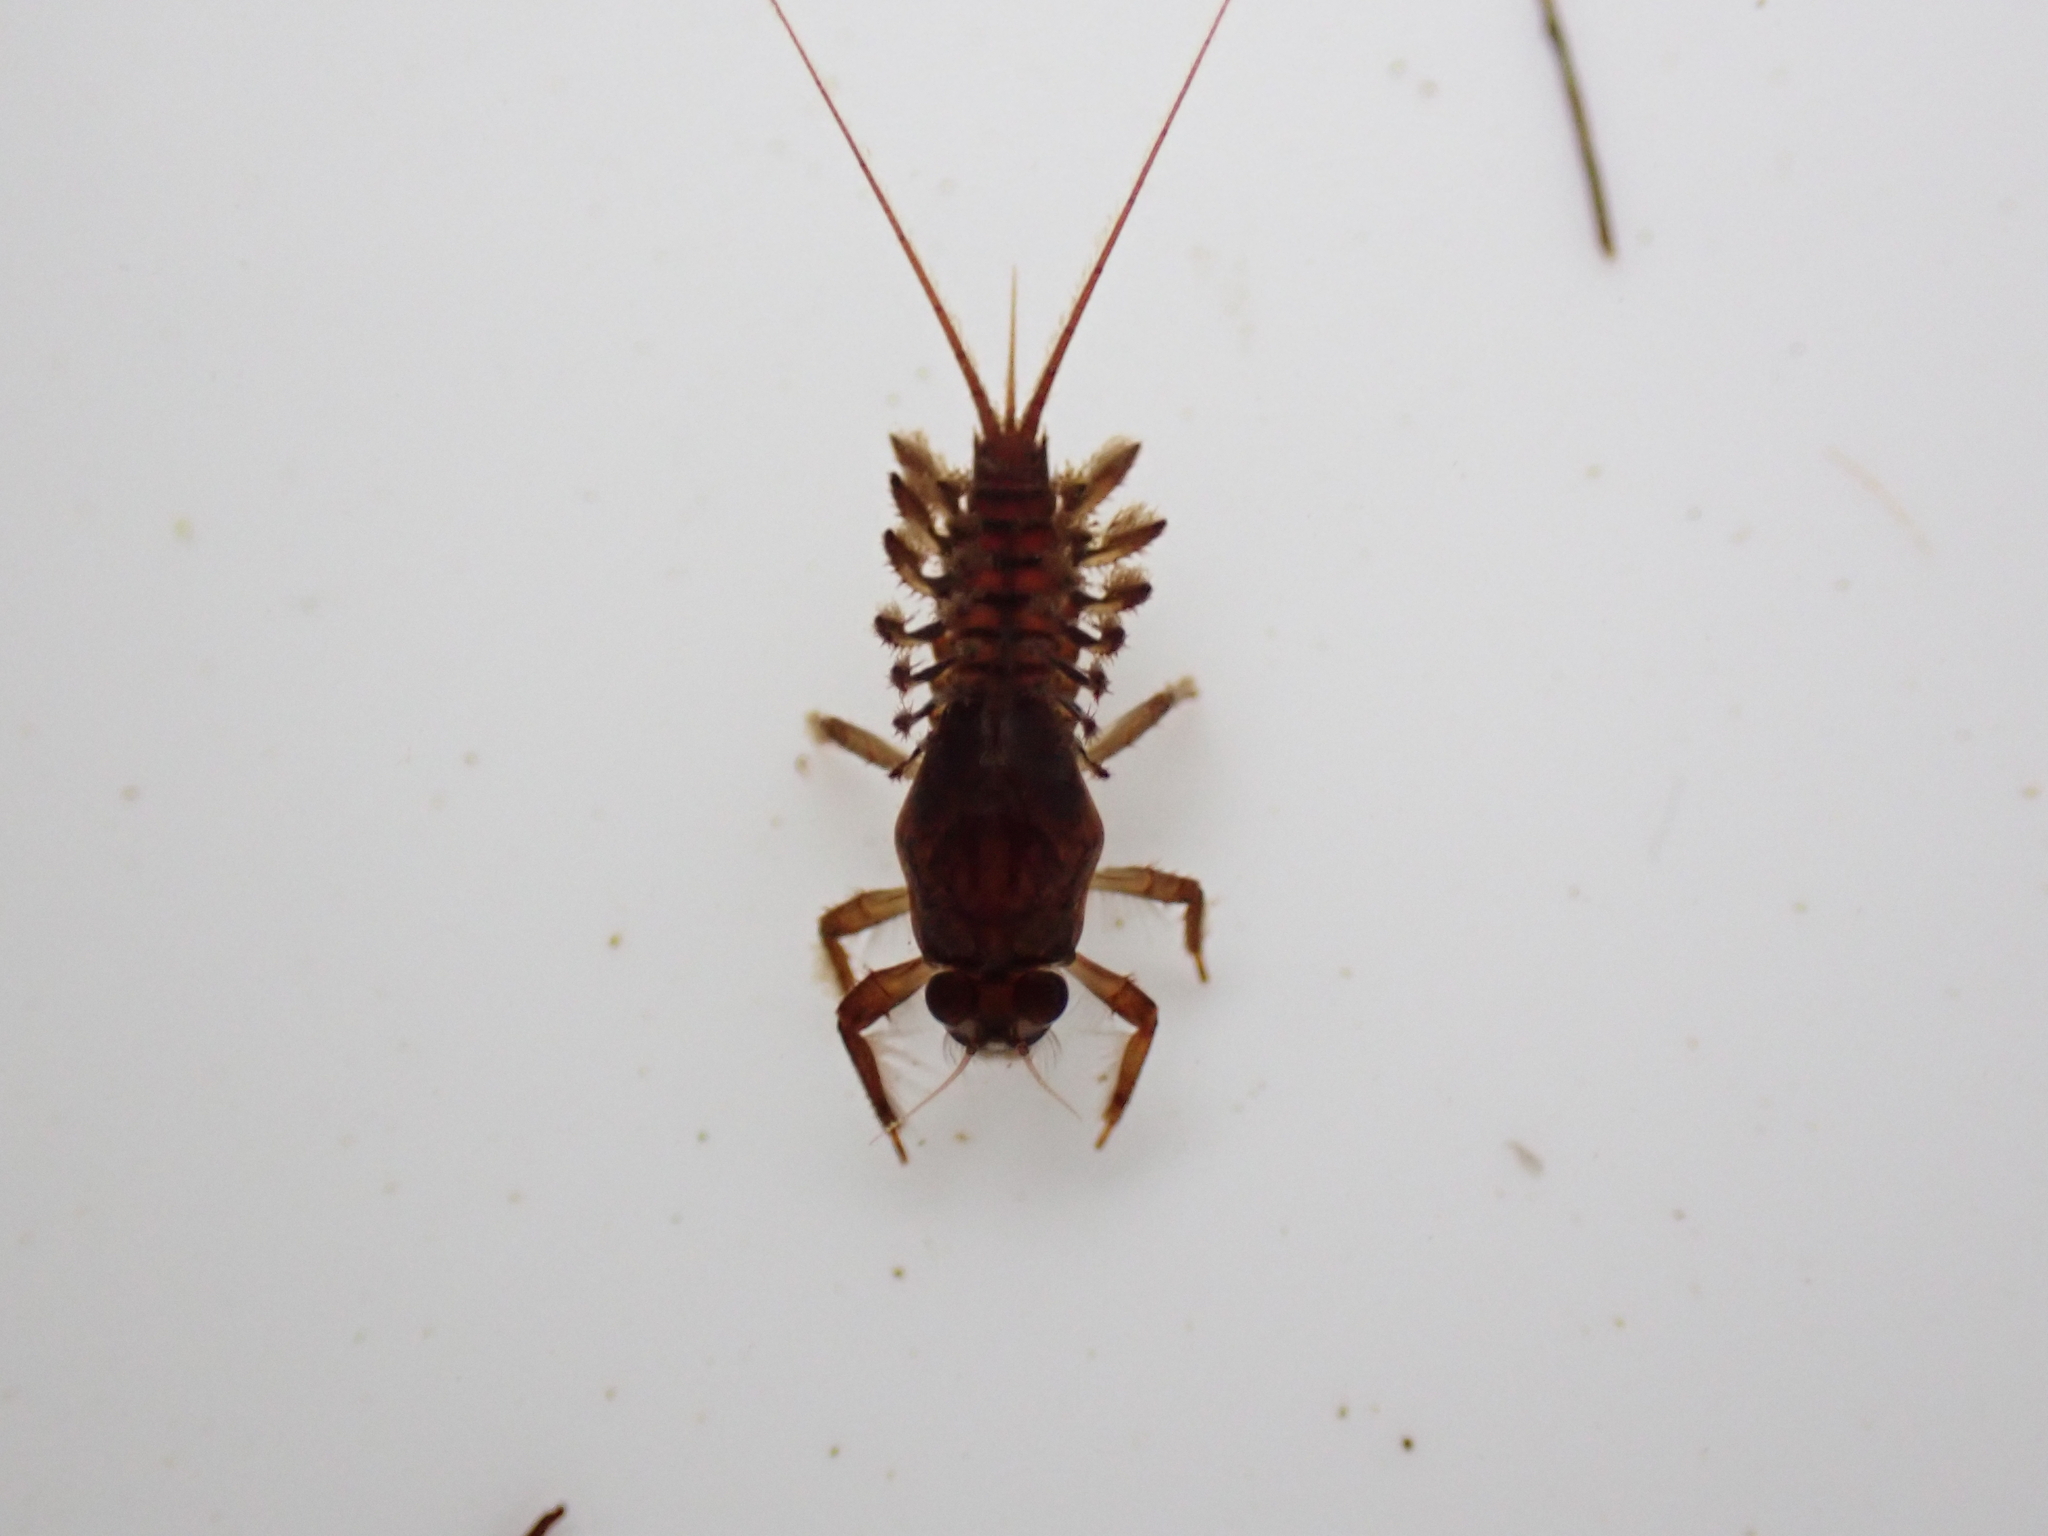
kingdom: Animalia
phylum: Arthropoda
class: Insecta
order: Ephemeroptera
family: Coloburiscidae
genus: Coloburiscus
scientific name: Coloburiscus humeralis
